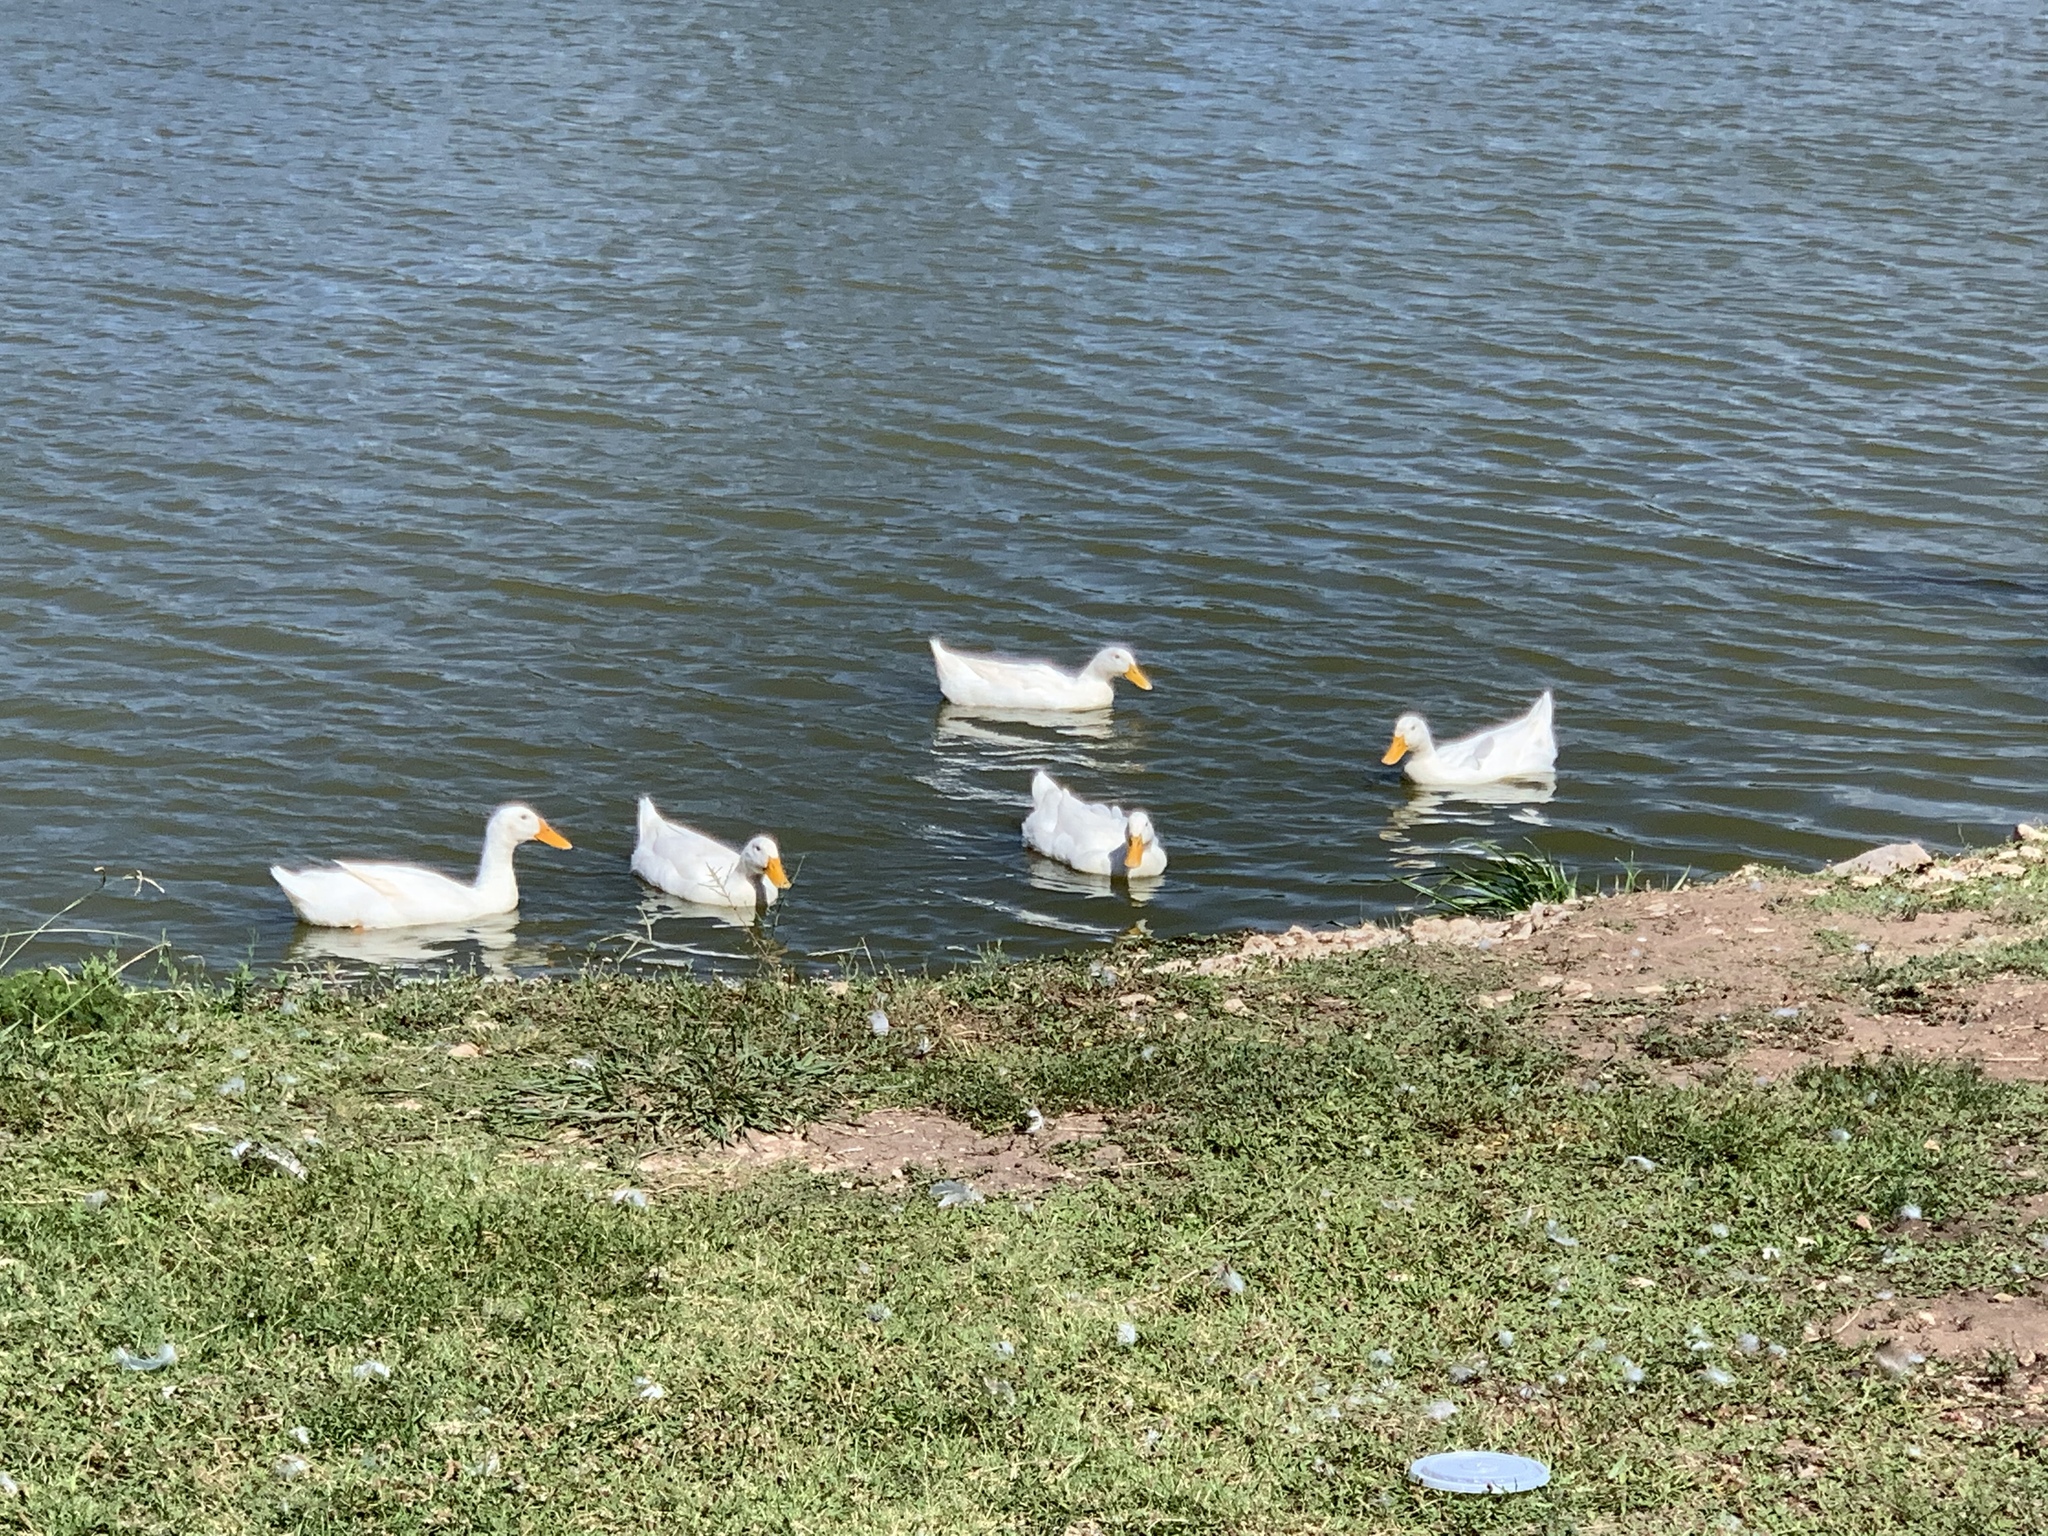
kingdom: Animalia
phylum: Chordata
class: Aves
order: Anseriformes
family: Anatidae
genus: Anas
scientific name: Anas platyrhynchos
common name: Mallard
